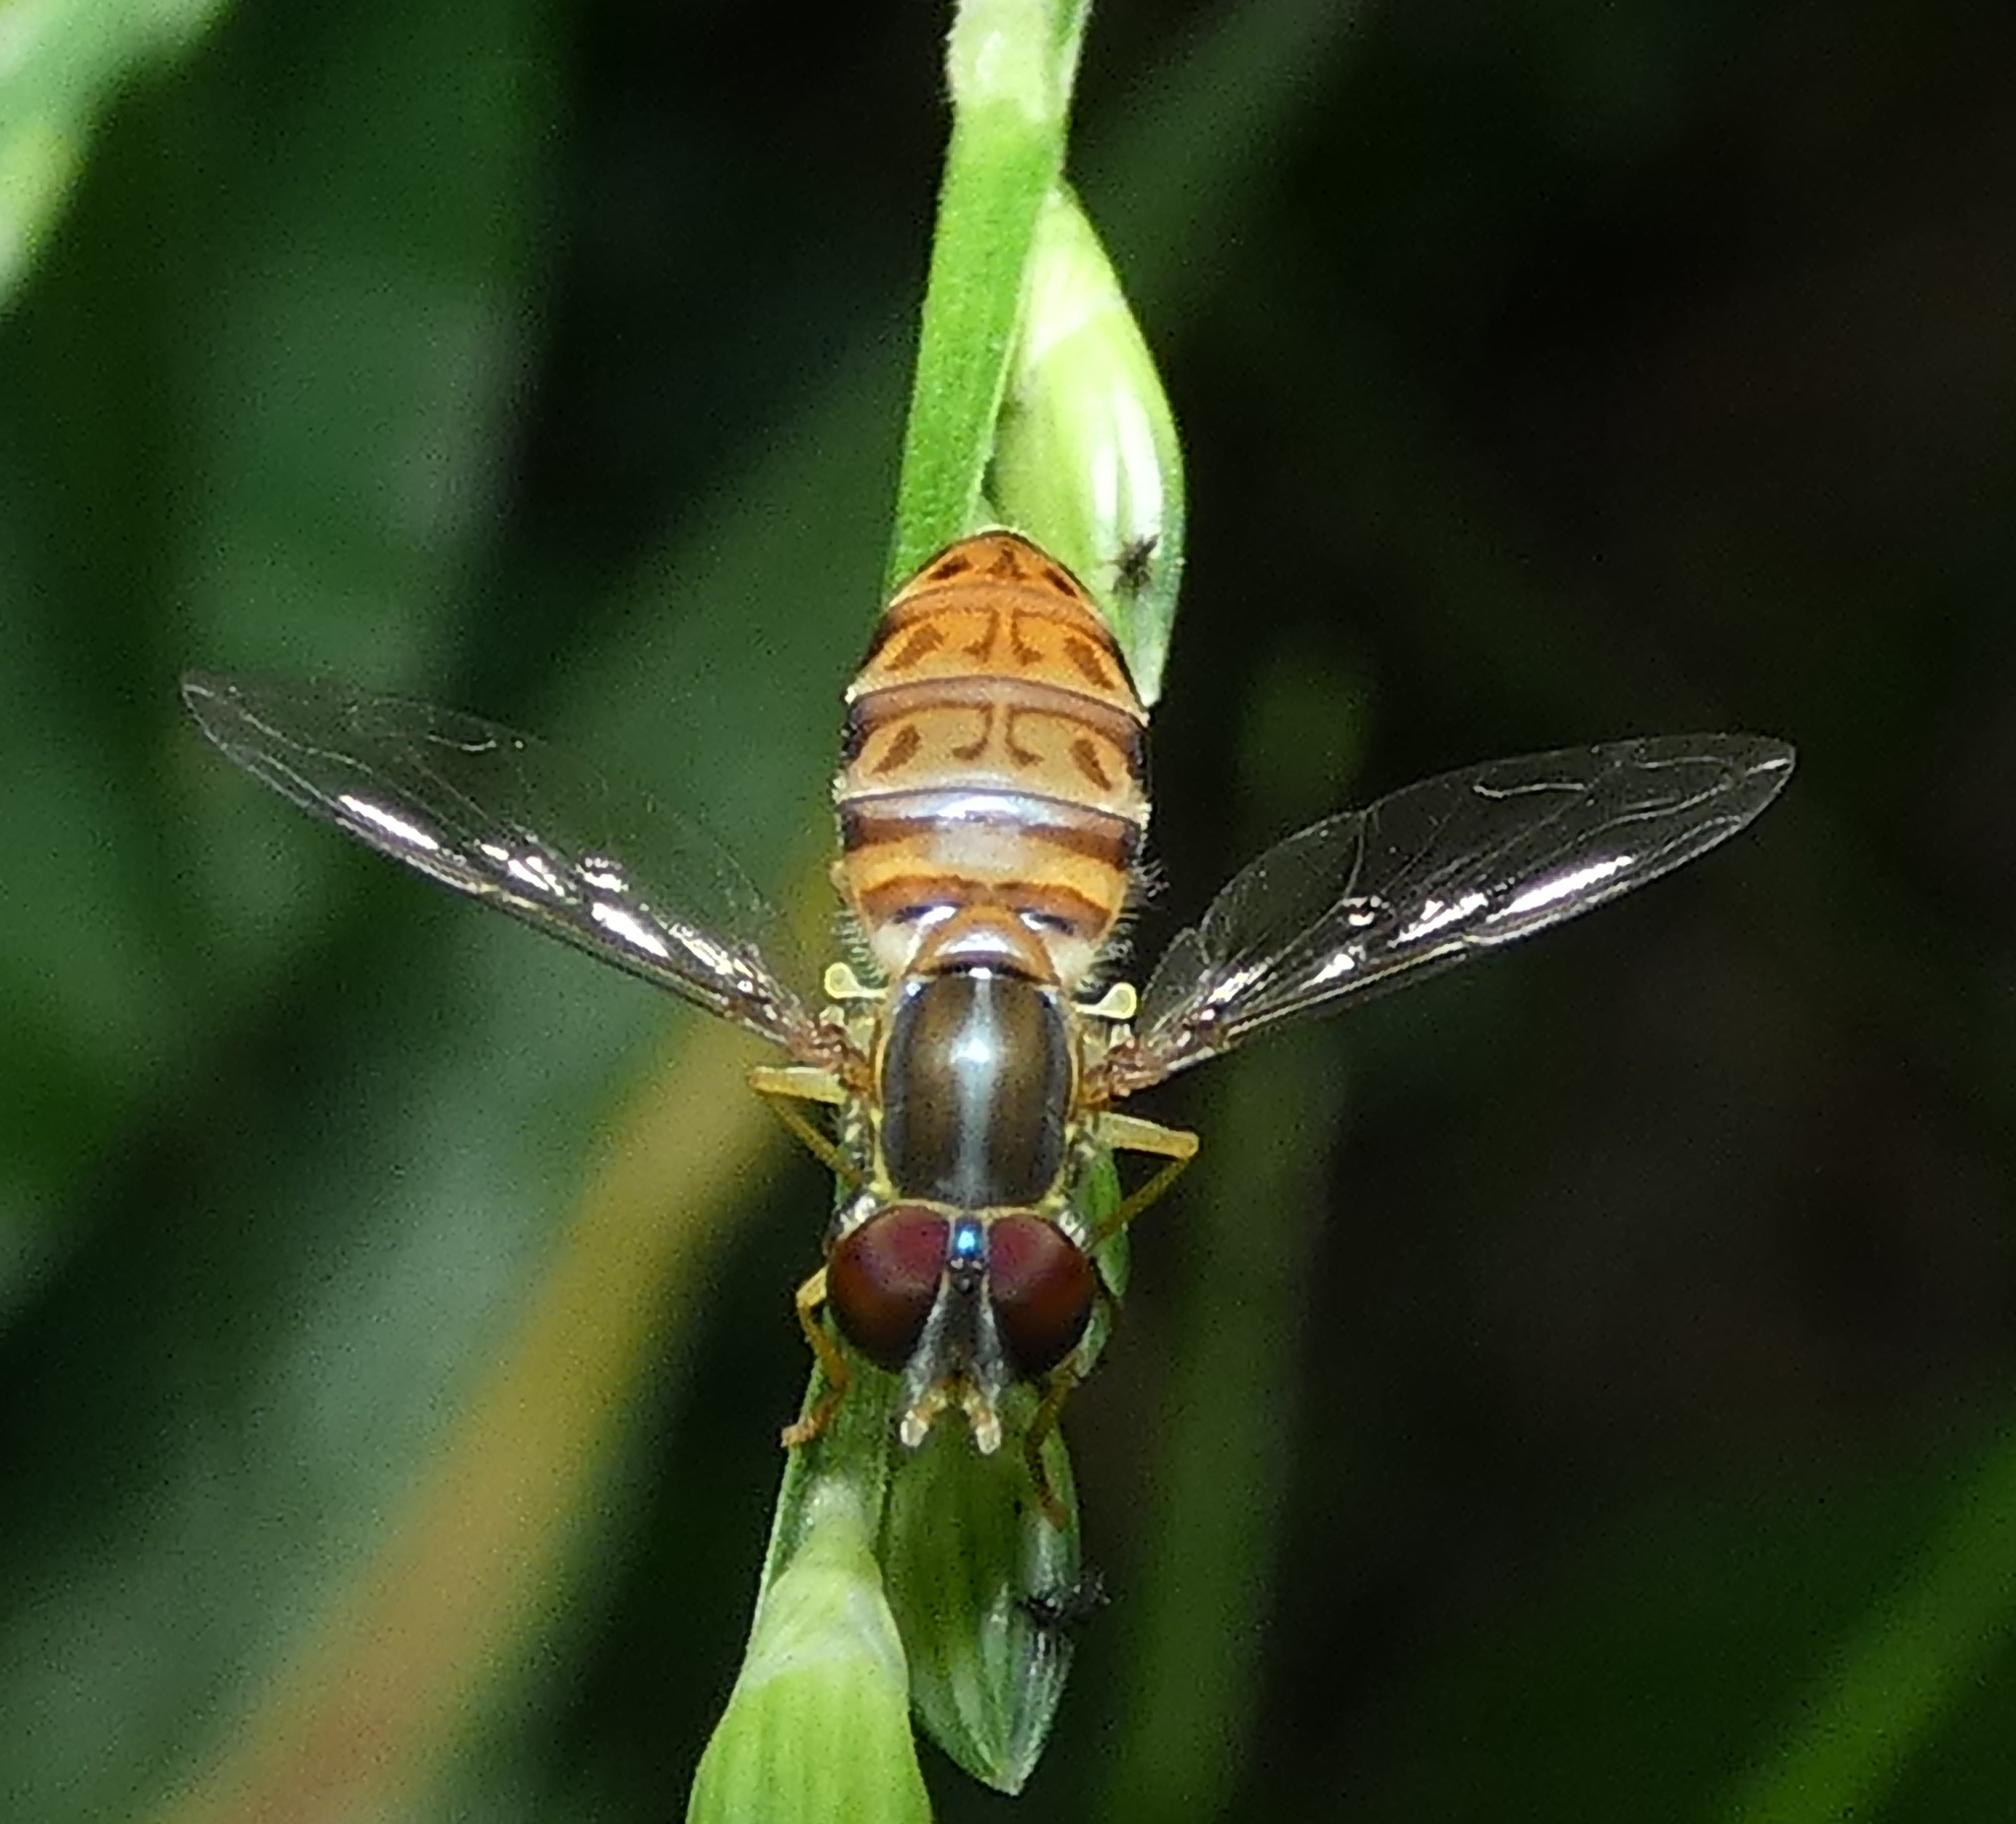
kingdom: Animalia
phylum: Arthropoda
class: Insecta
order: Diptera
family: Syrphidae
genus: Toxomerus
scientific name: Toxomerus pulchellus
